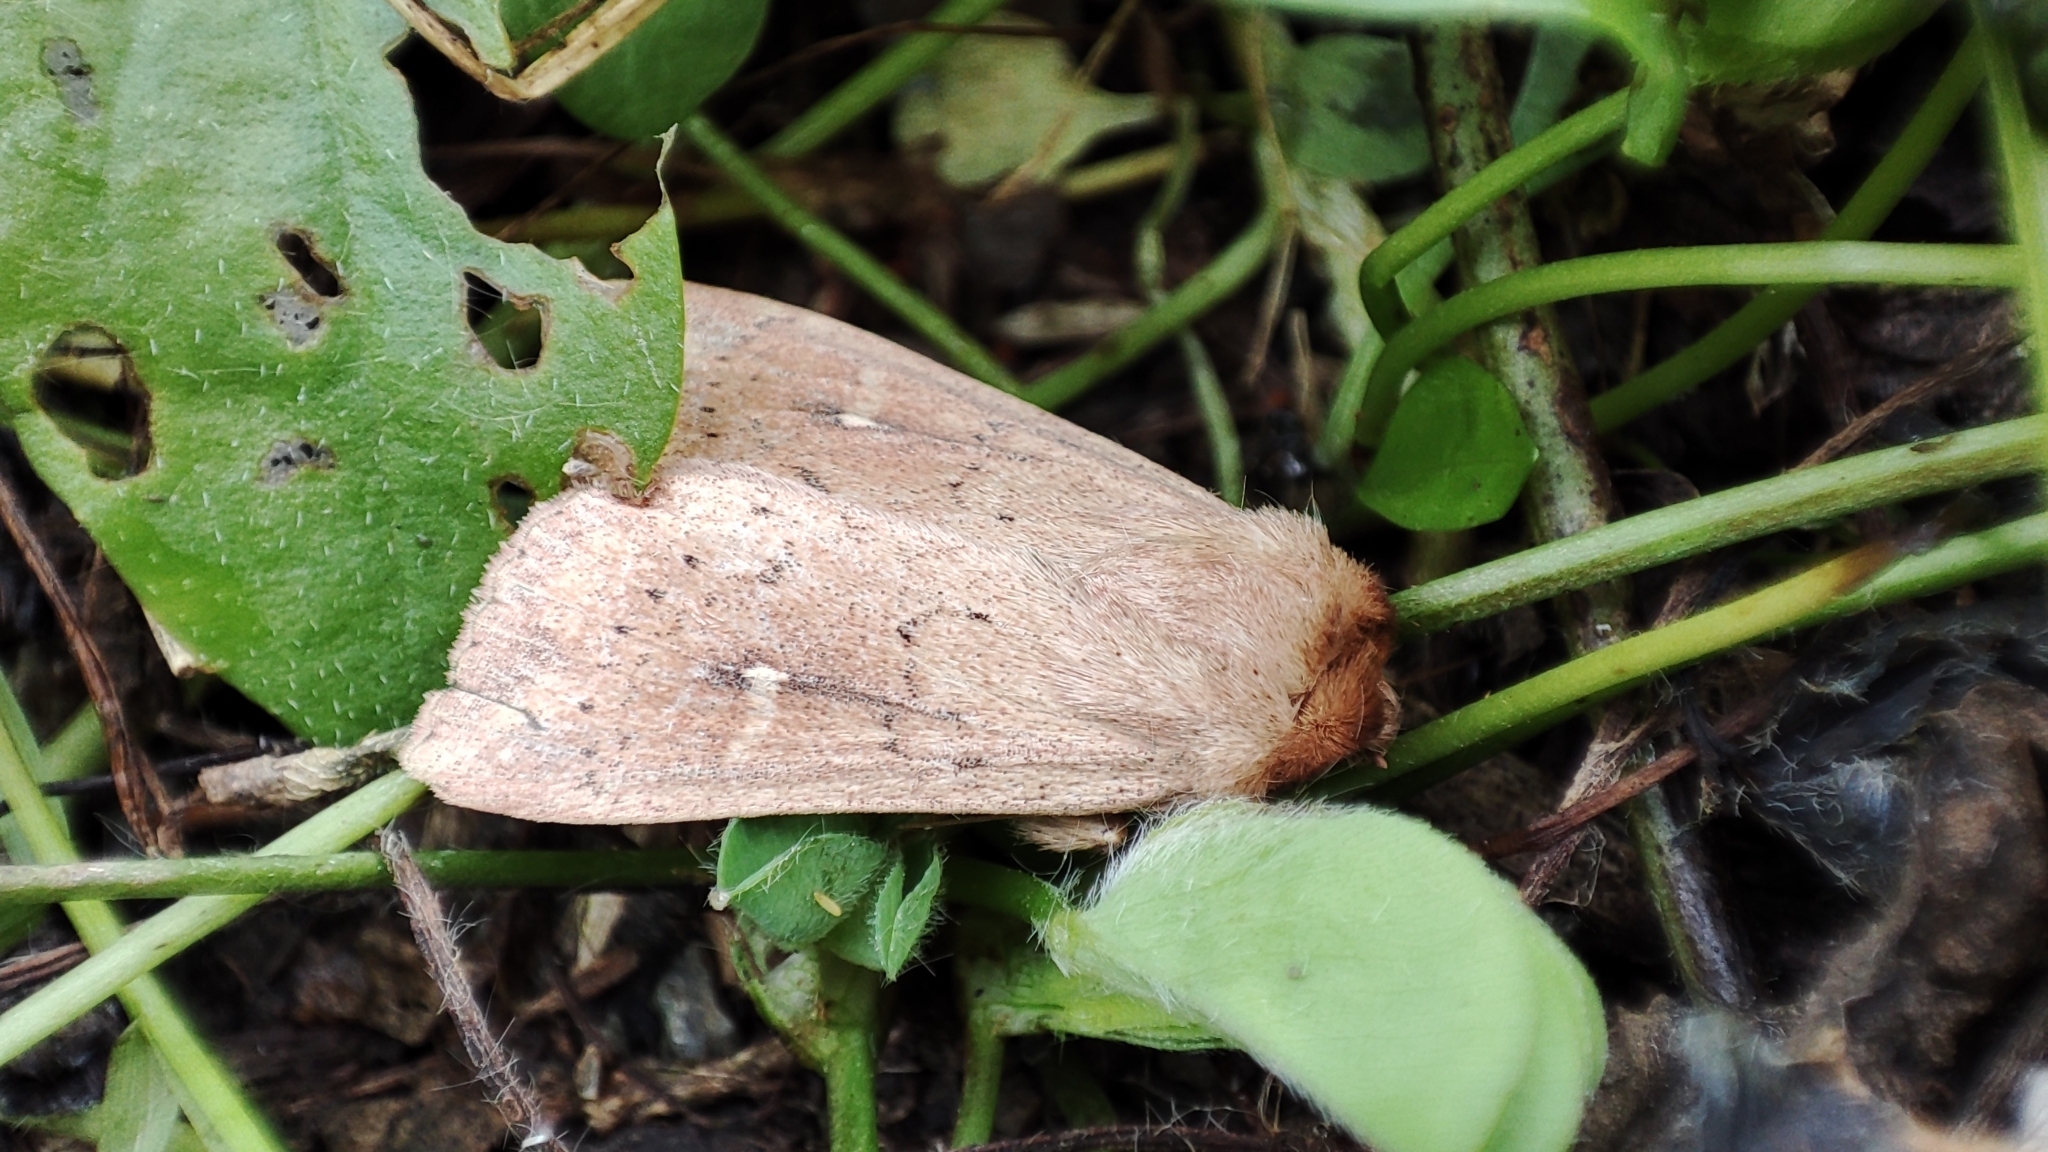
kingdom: Animalia
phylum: Arthropoda
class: Insecta
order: Lepidoptera
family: Noctuidae
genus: Mythimna
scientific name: Mythimna ferrago
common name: Clay
